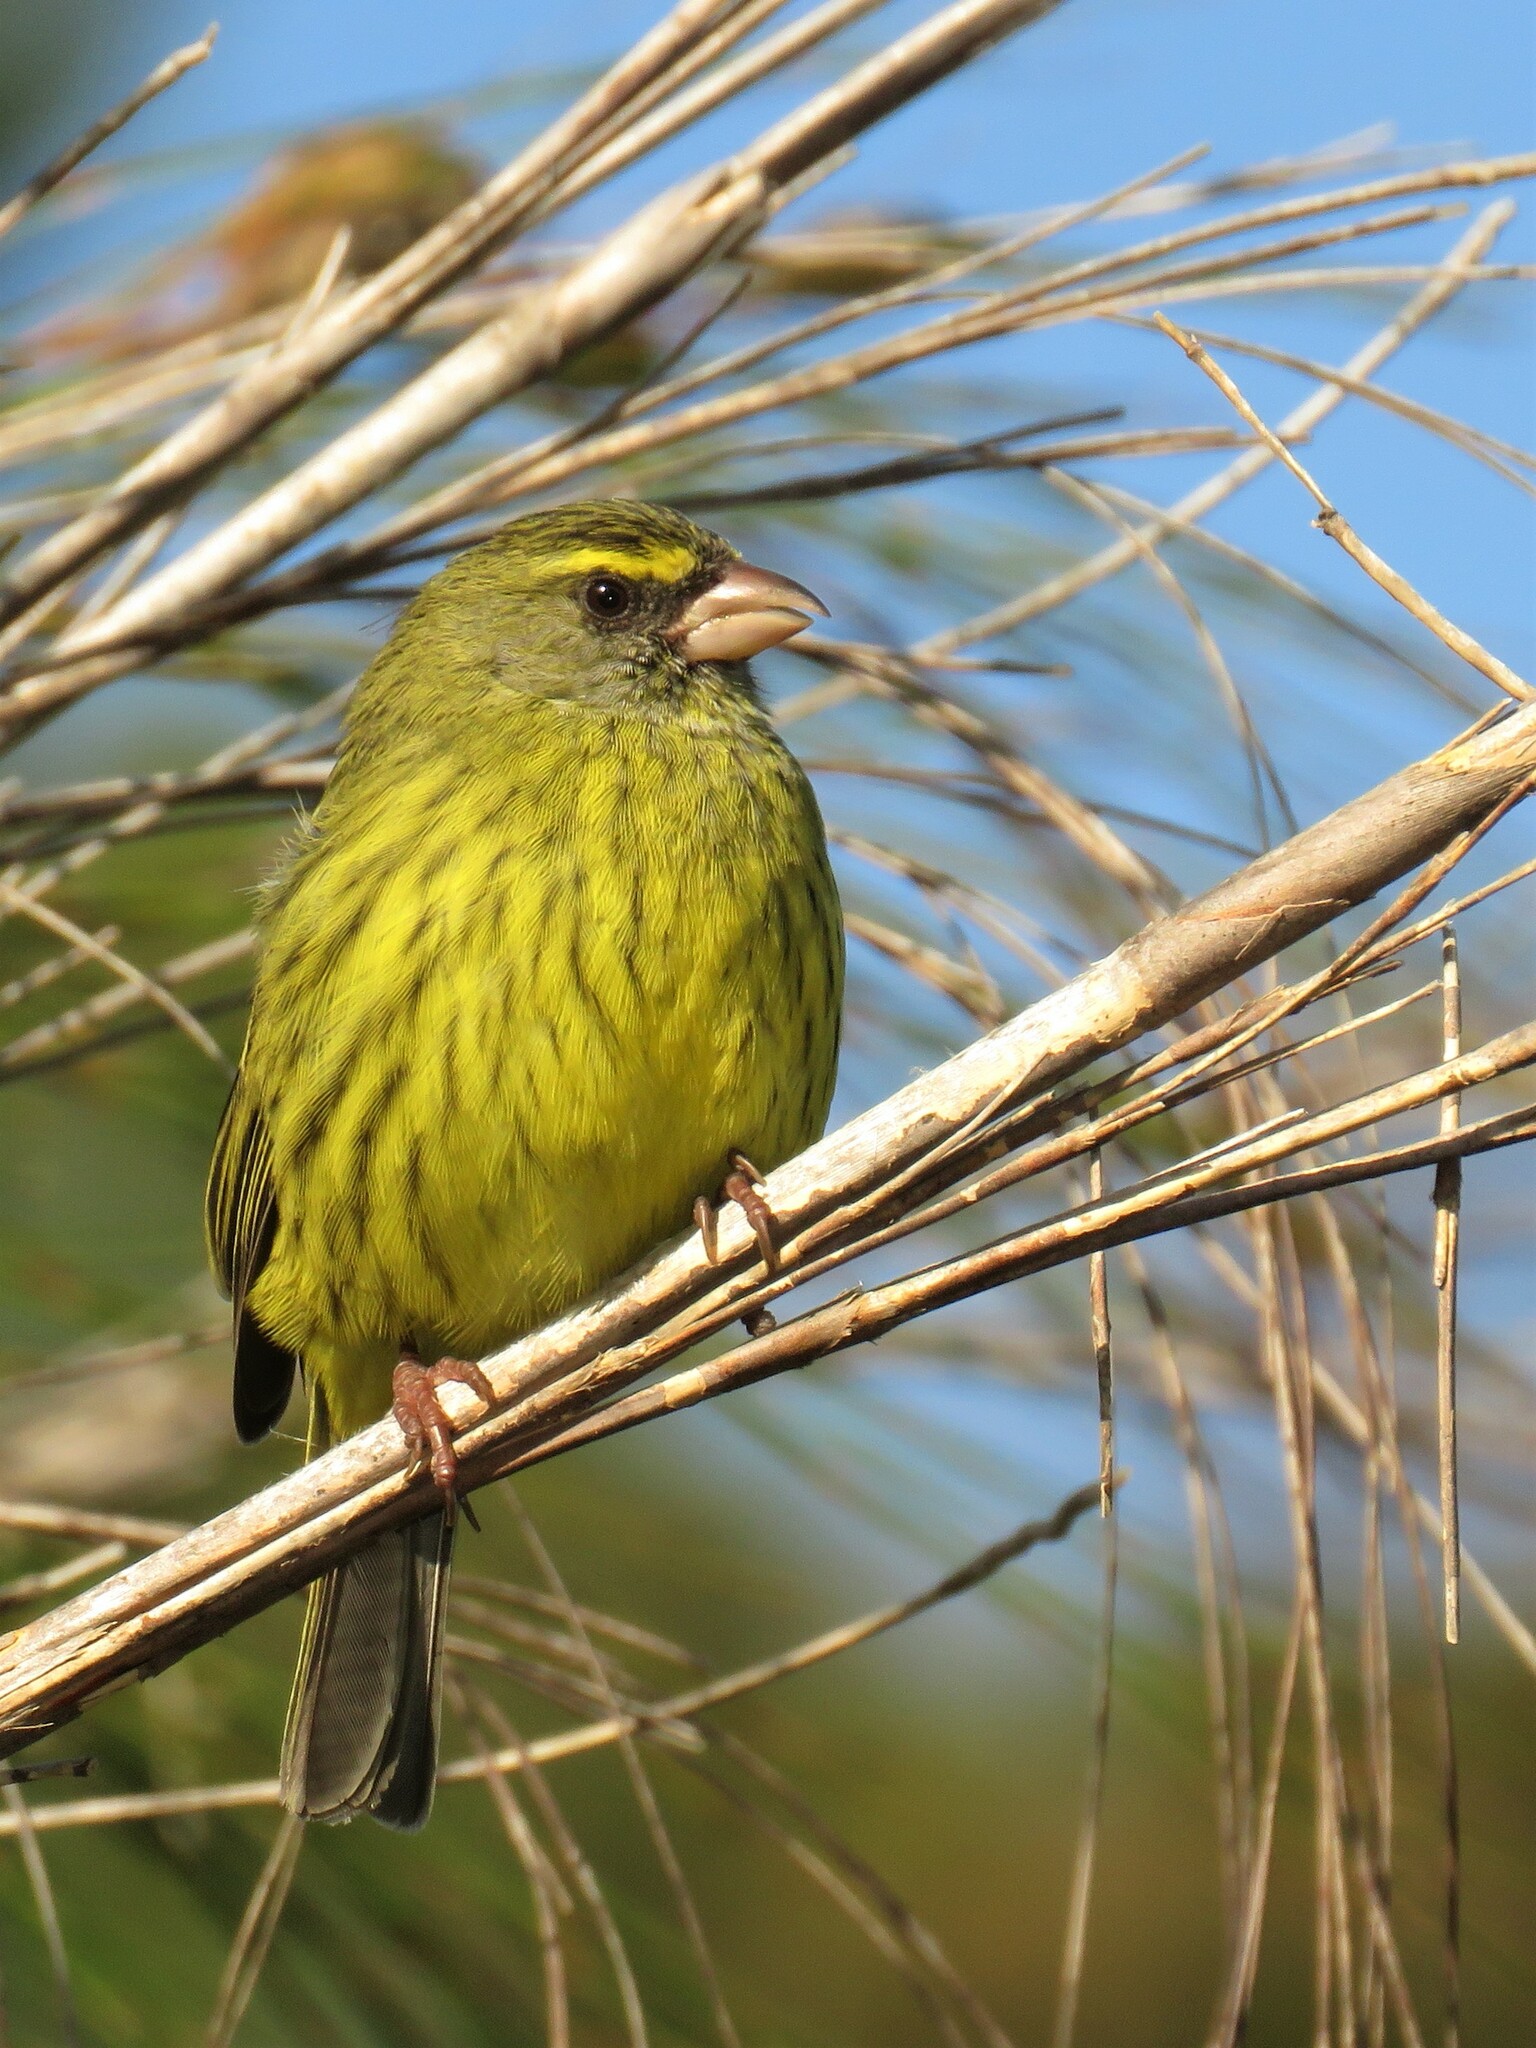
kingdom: Animalia
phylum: Chordata
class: Aves
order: Passeriformes
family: Fringillidae
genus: Crithagra
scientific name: Crithagra scotops
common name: Forest canary
